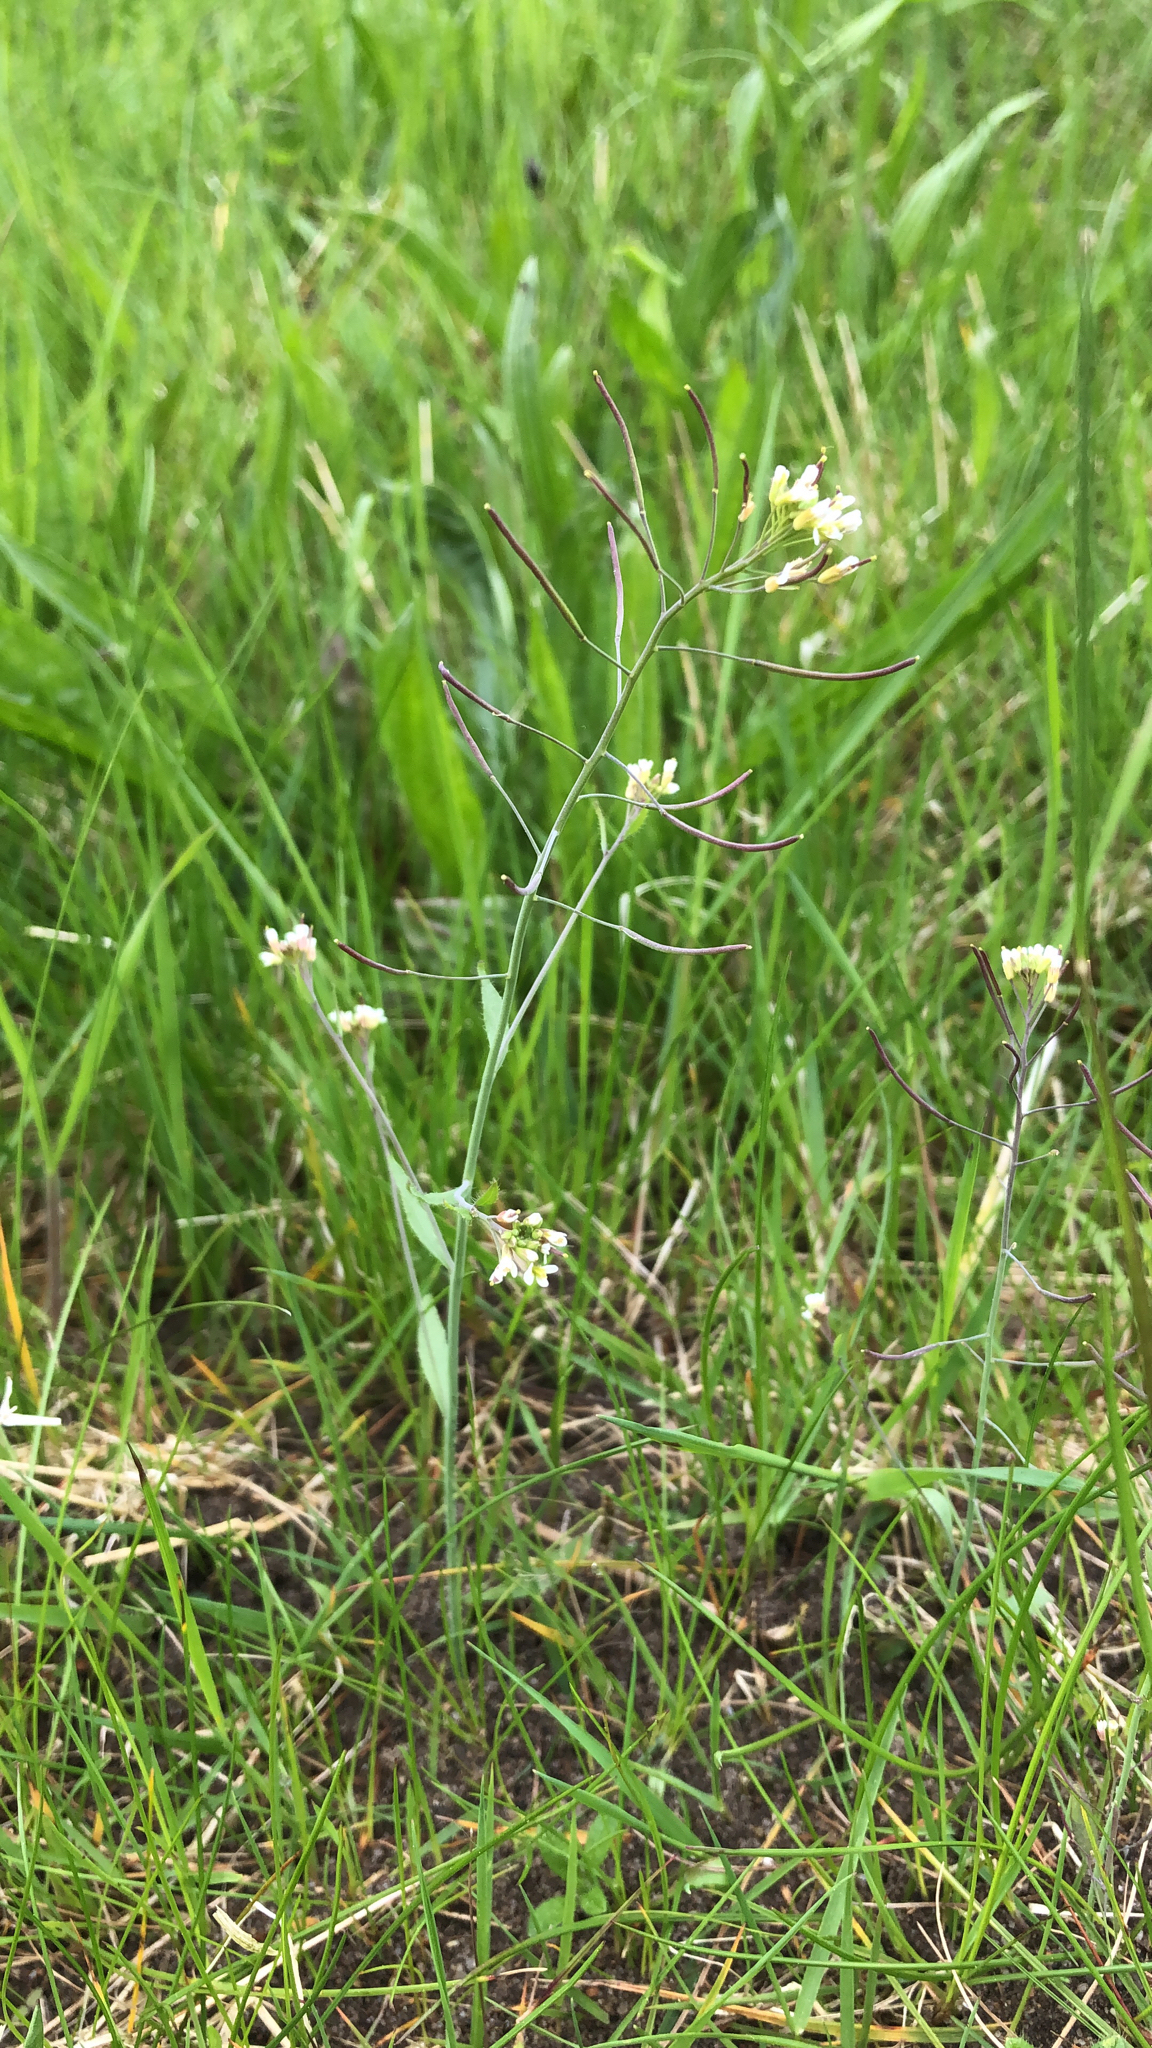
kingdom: Plantae
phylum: Tracheophyta
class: Magnoliopsida
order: Brassicales
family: Brassicaceae
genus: Arabidopsis
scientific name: Arabidopsis thaliana
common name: Thale cress
